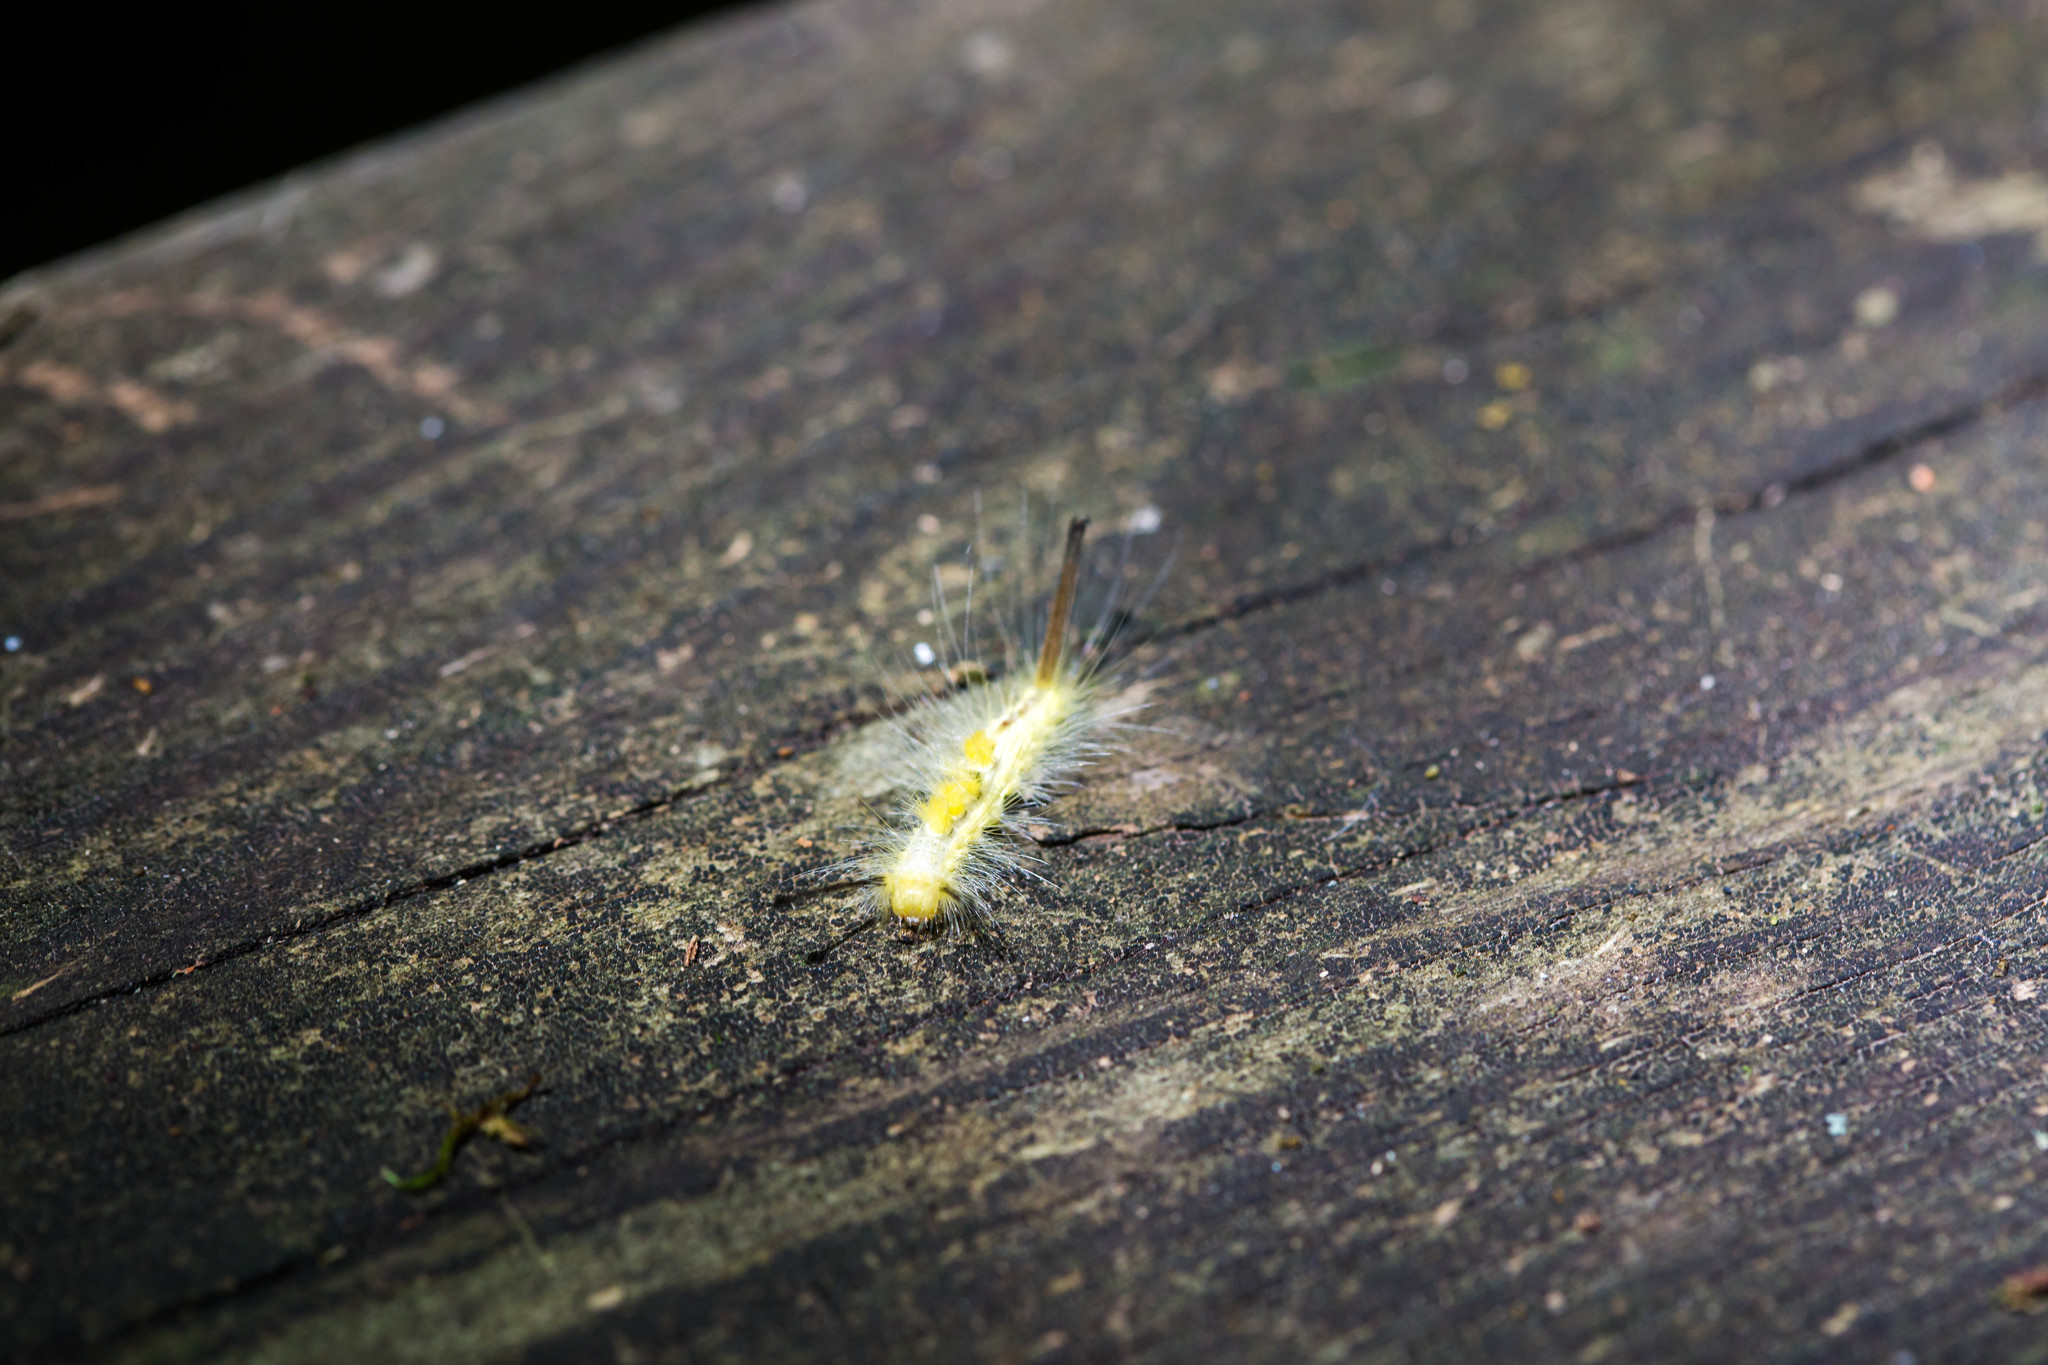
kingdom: Animalia
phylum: Arthropoda
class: Insecta
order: Lepidoptera
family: Erebidae
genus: Orgyia
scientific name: Orgyia definita
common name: Definite tussock moth
